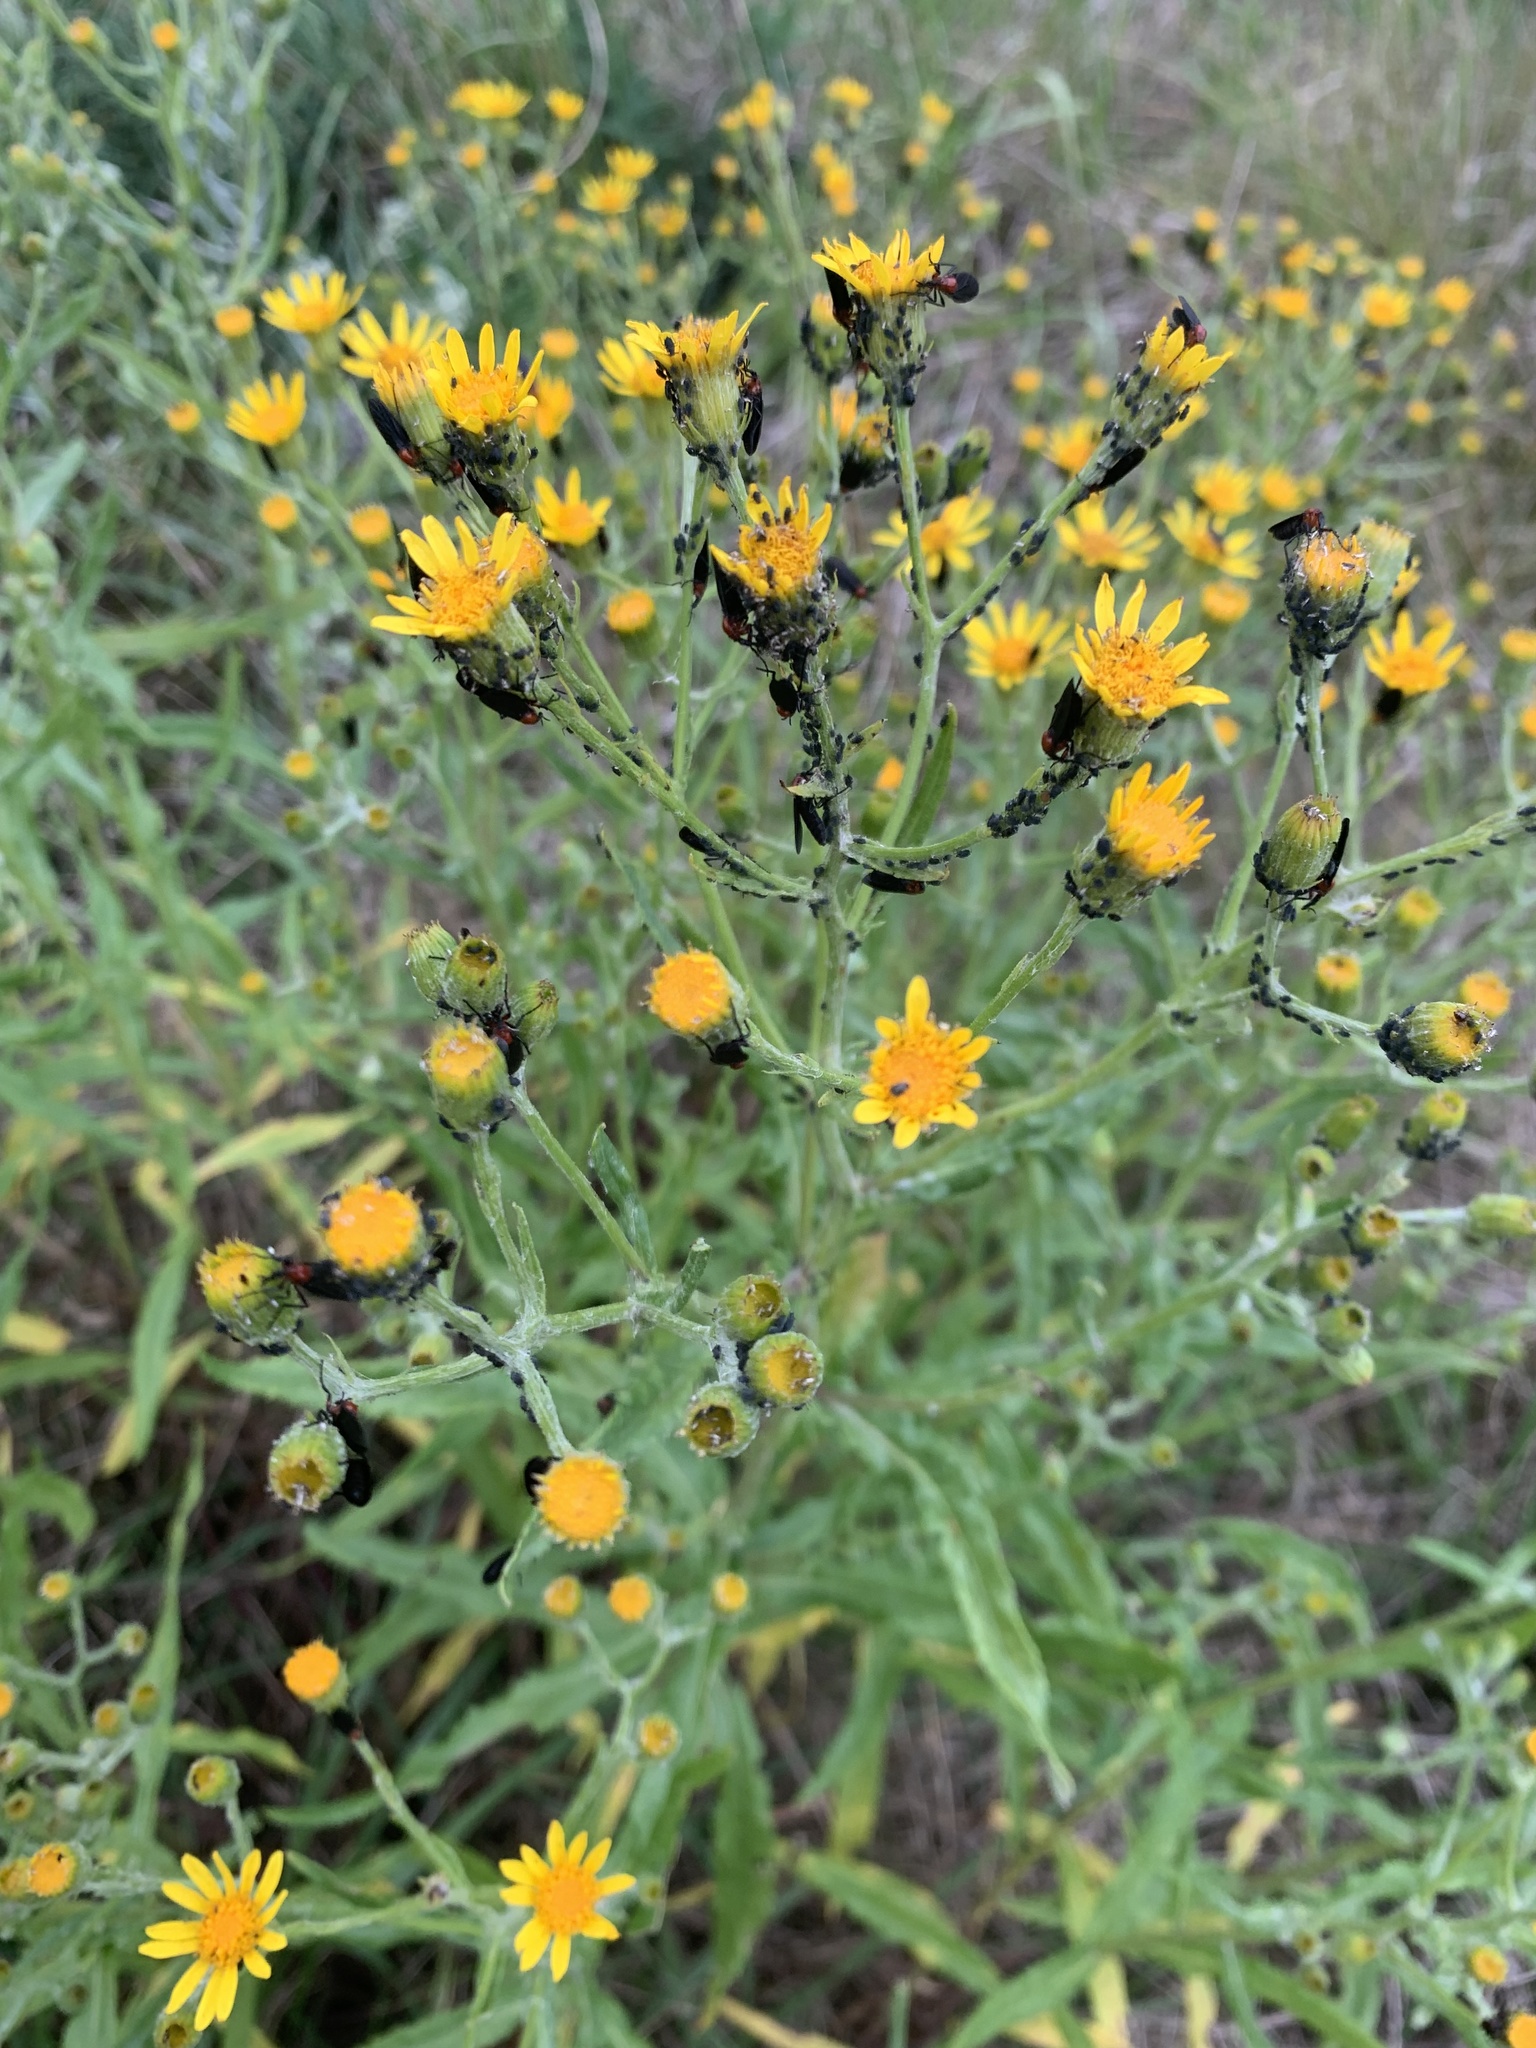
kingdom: Animalia
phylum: Arthropoda
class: Insecta
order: Diptera
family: Bibionidae
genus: Dilophus
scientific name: Dilophus pectoralis
